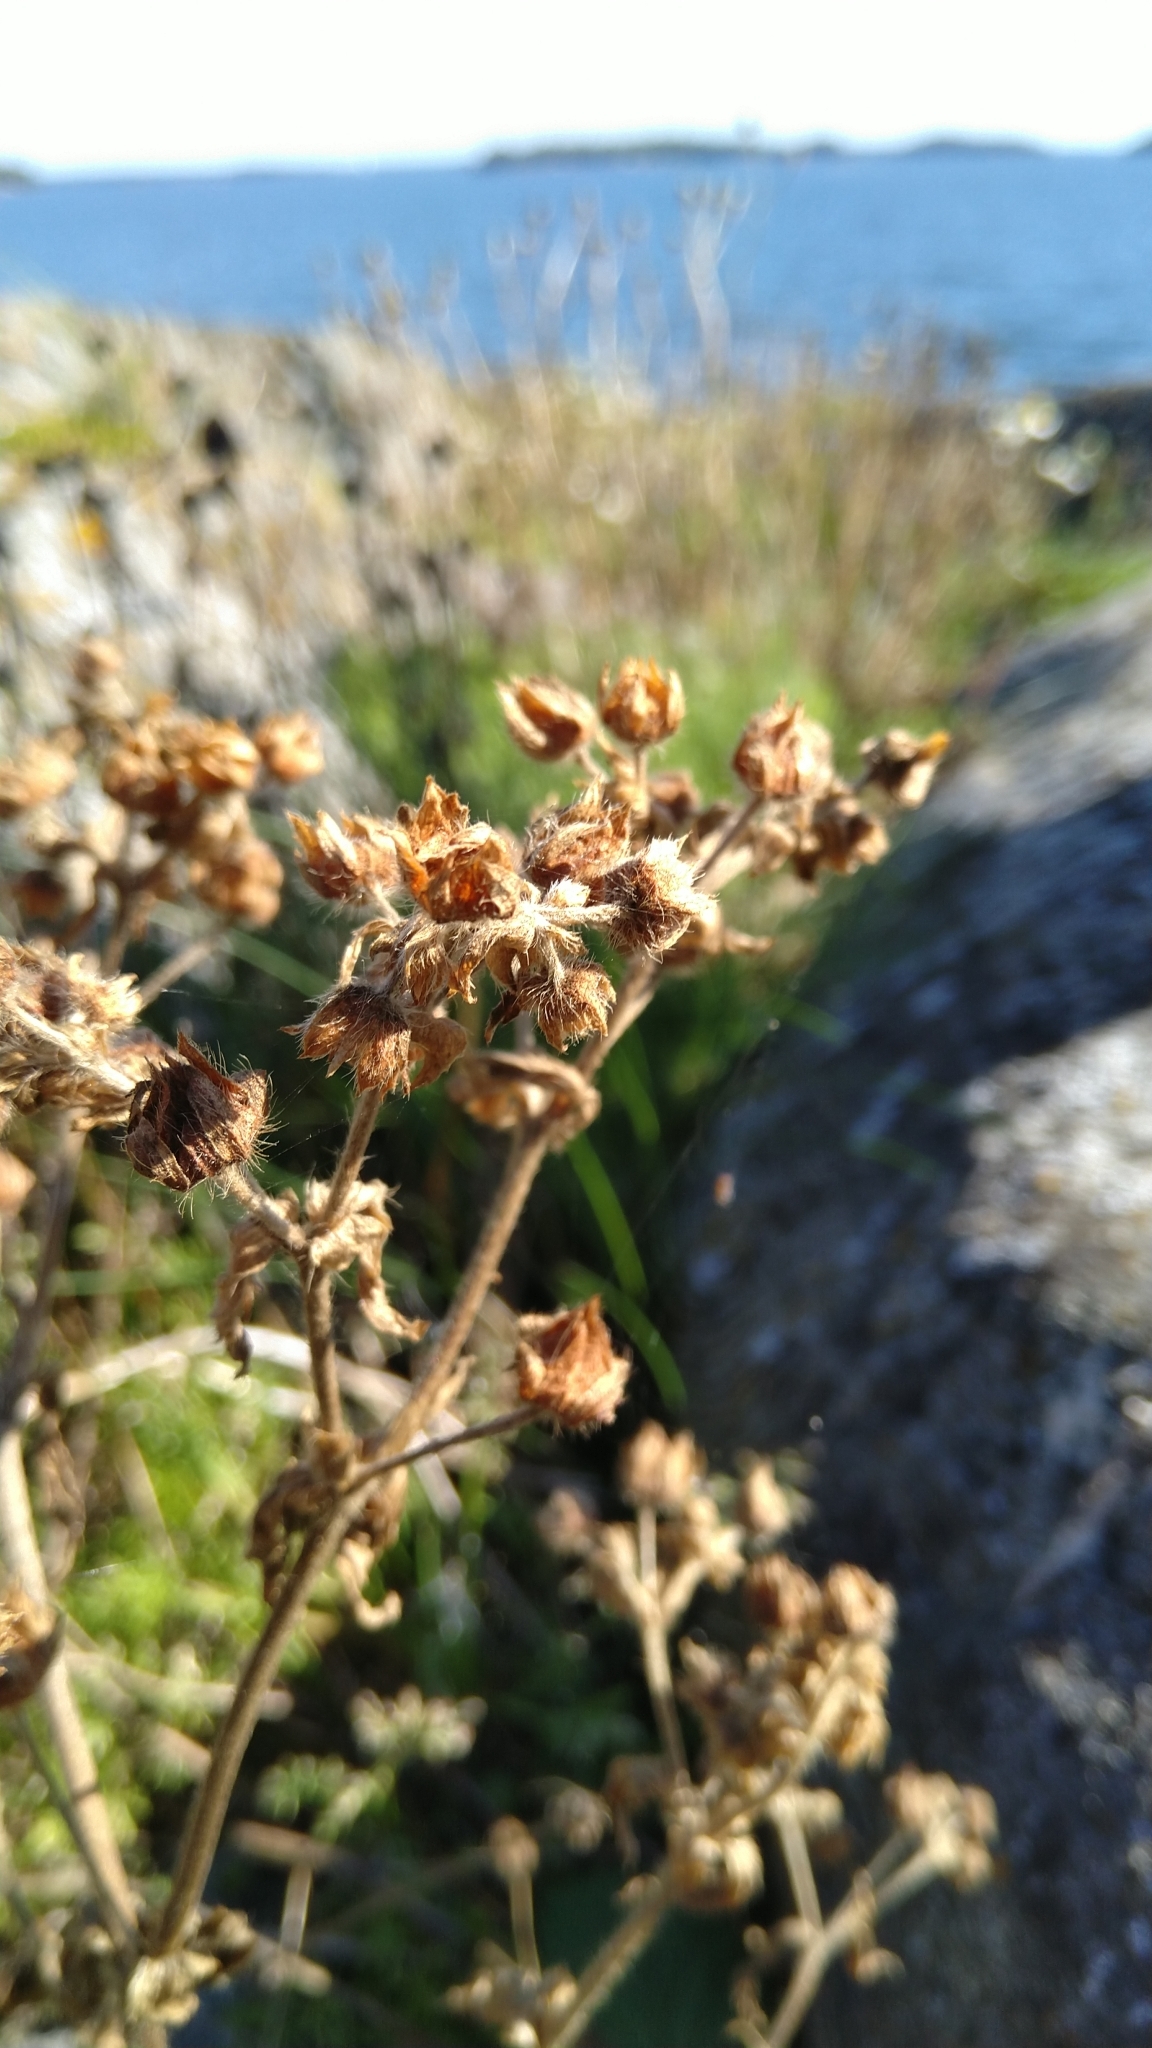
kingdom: Plantae
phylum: Tracheophyta
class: Magnoliopsida
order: Rosales
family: Rosaceae
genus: Potentilla
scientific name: Potentilla norvegica
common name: Ternate-leaved cinquefoil
